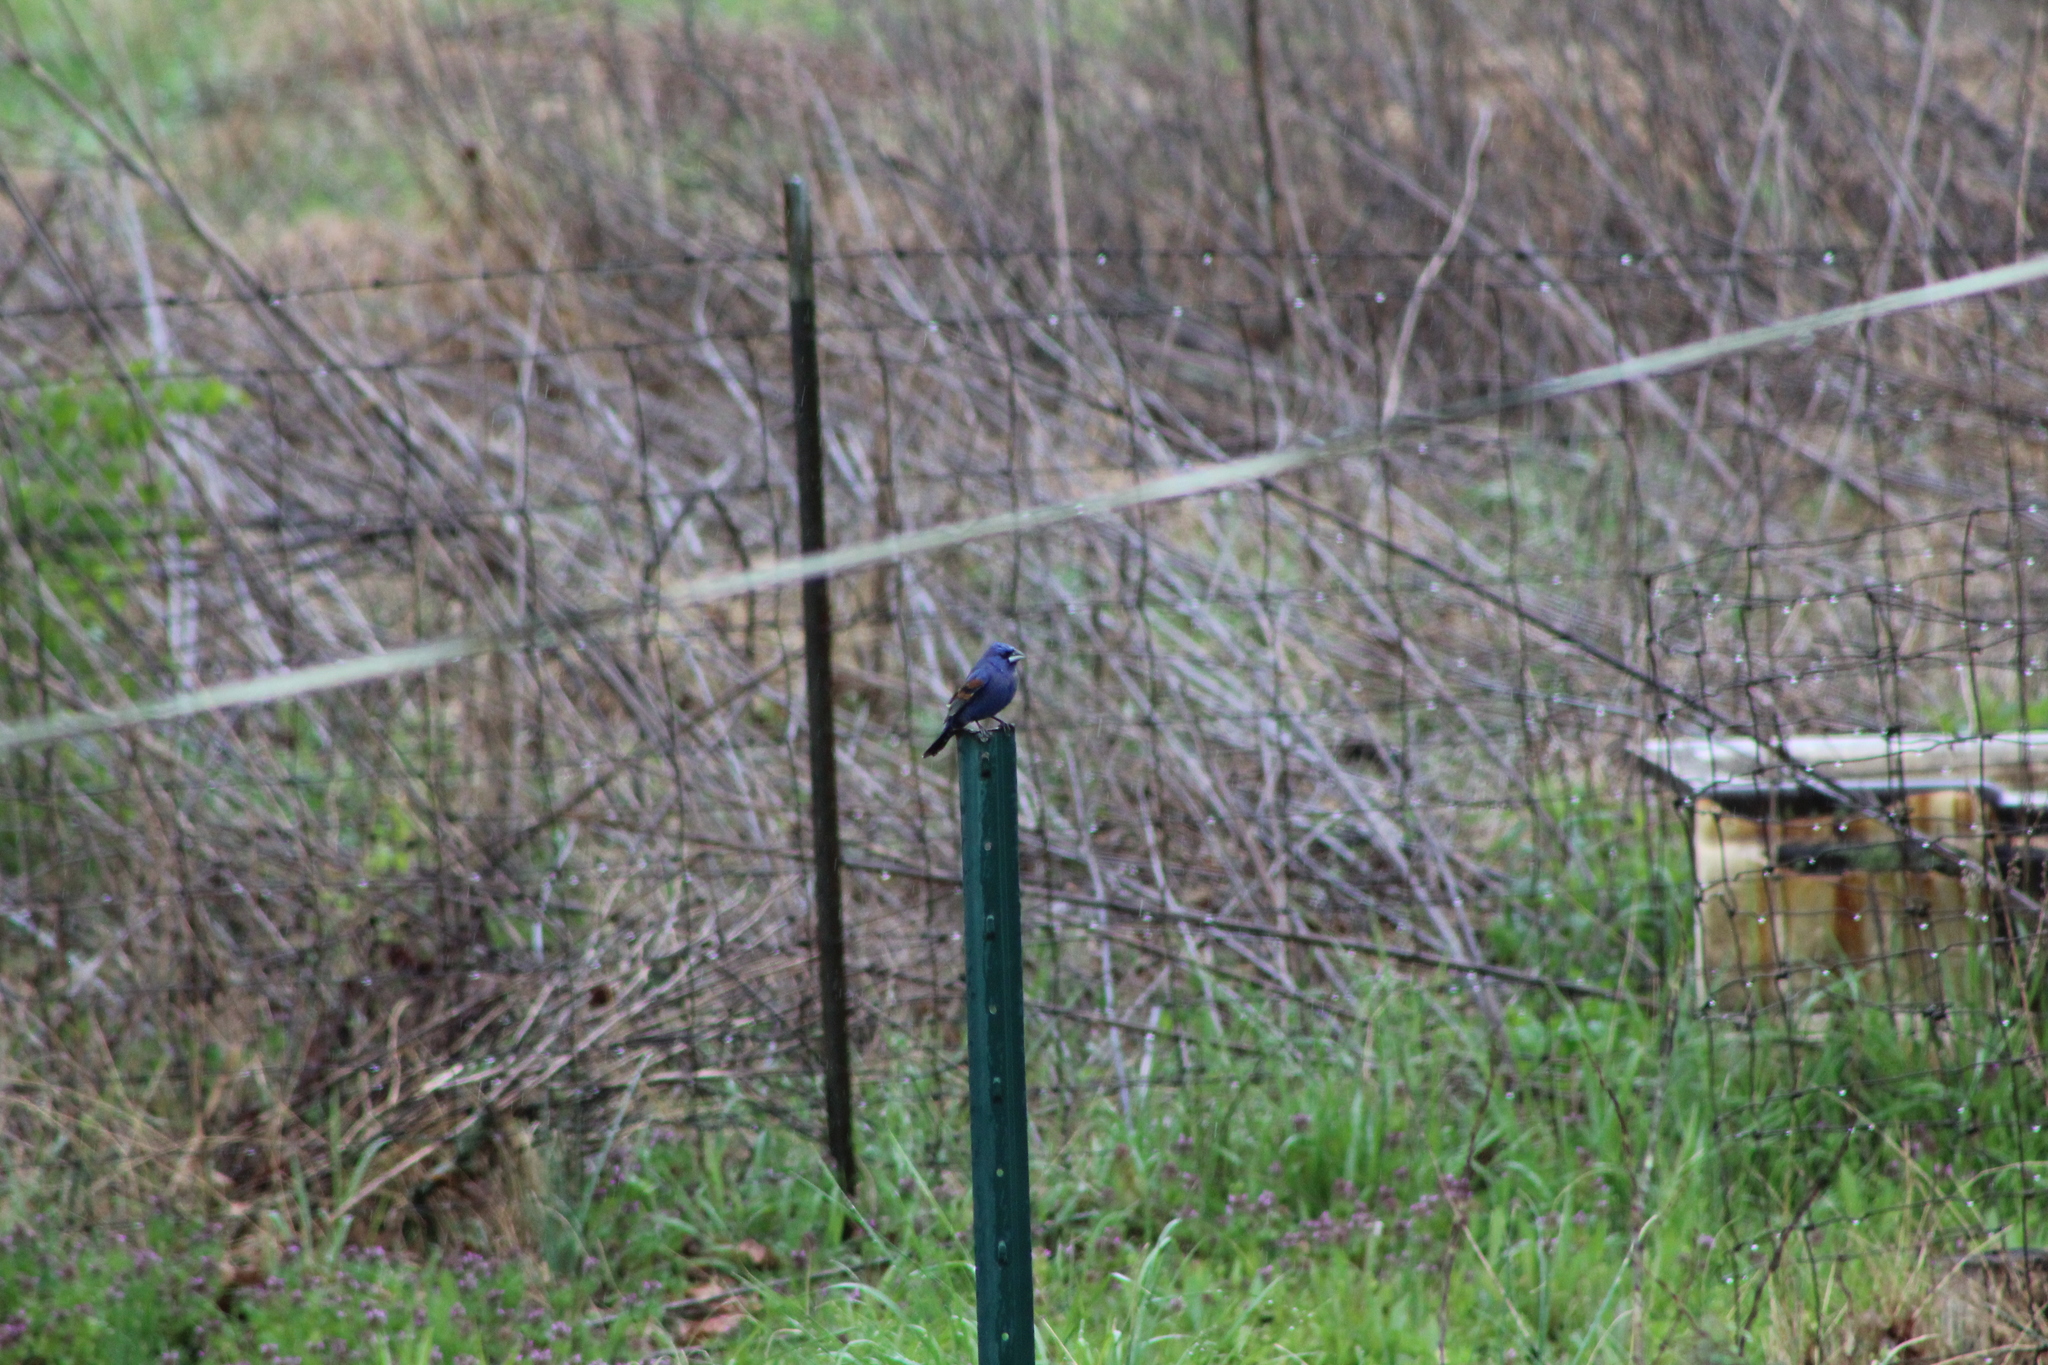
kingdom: Animalia
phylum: Chordata
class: Aves
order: Passeriformes
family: Cardinalidae
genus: Passerina
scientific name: Passerina caerulea
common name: Blue grosbeak
